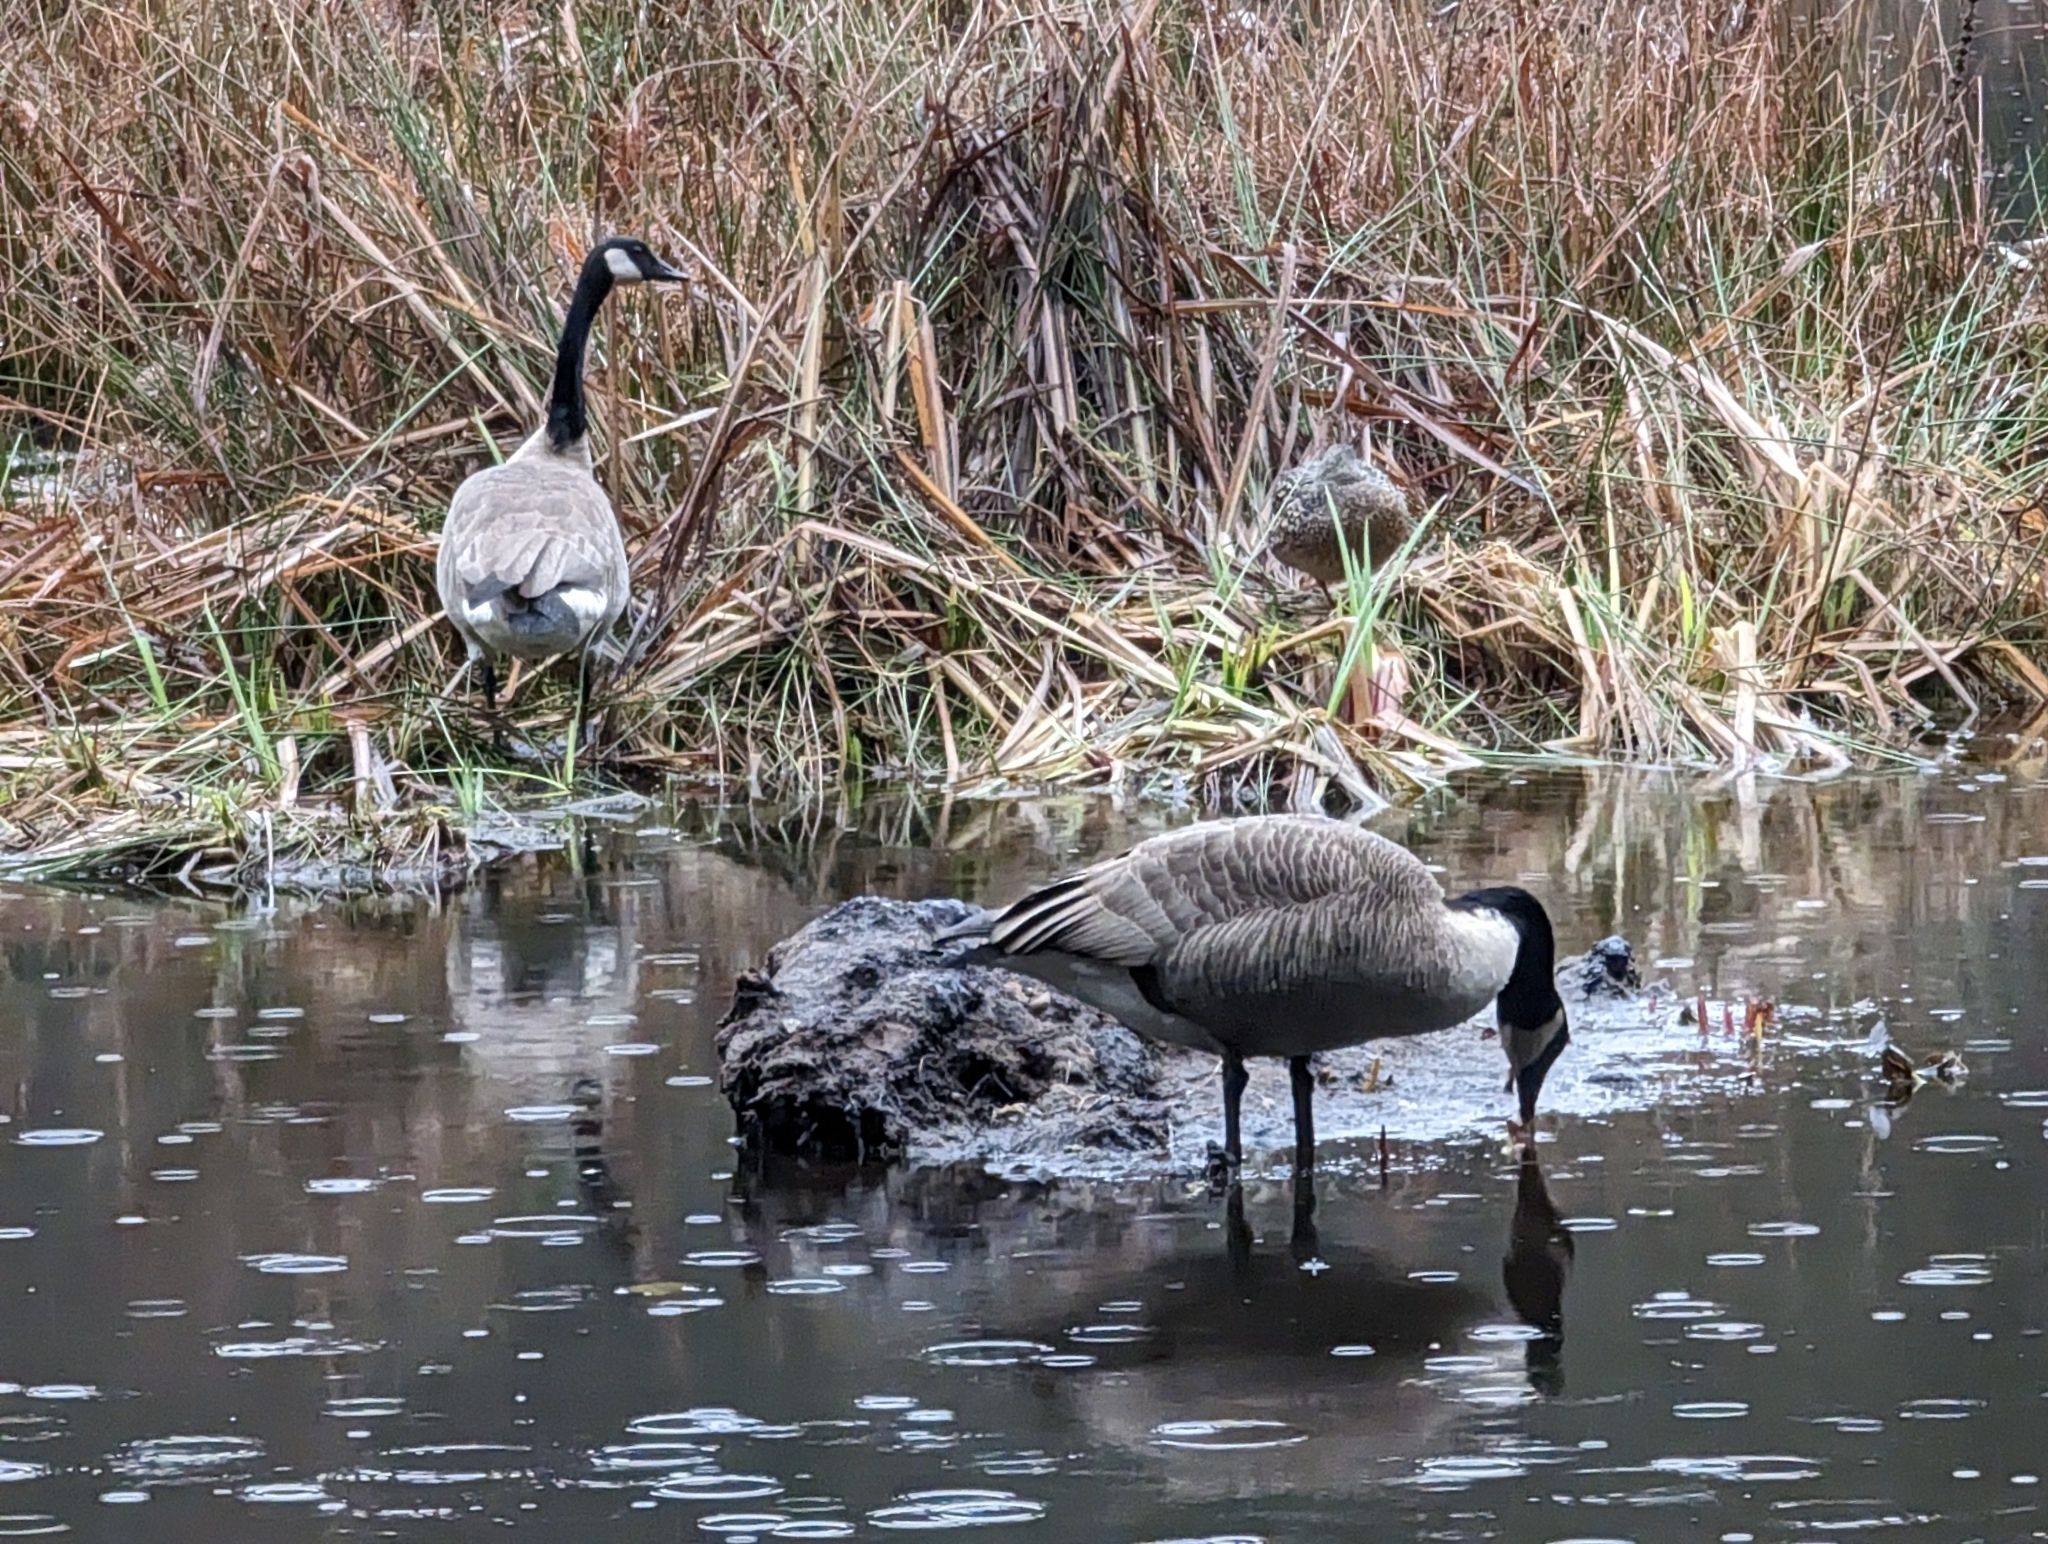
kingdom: Animalia
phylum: Chordata
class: Aves
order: Anseriformes
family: Anatidae
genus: Branta
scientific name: Branta canadensis
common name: Canada goose
